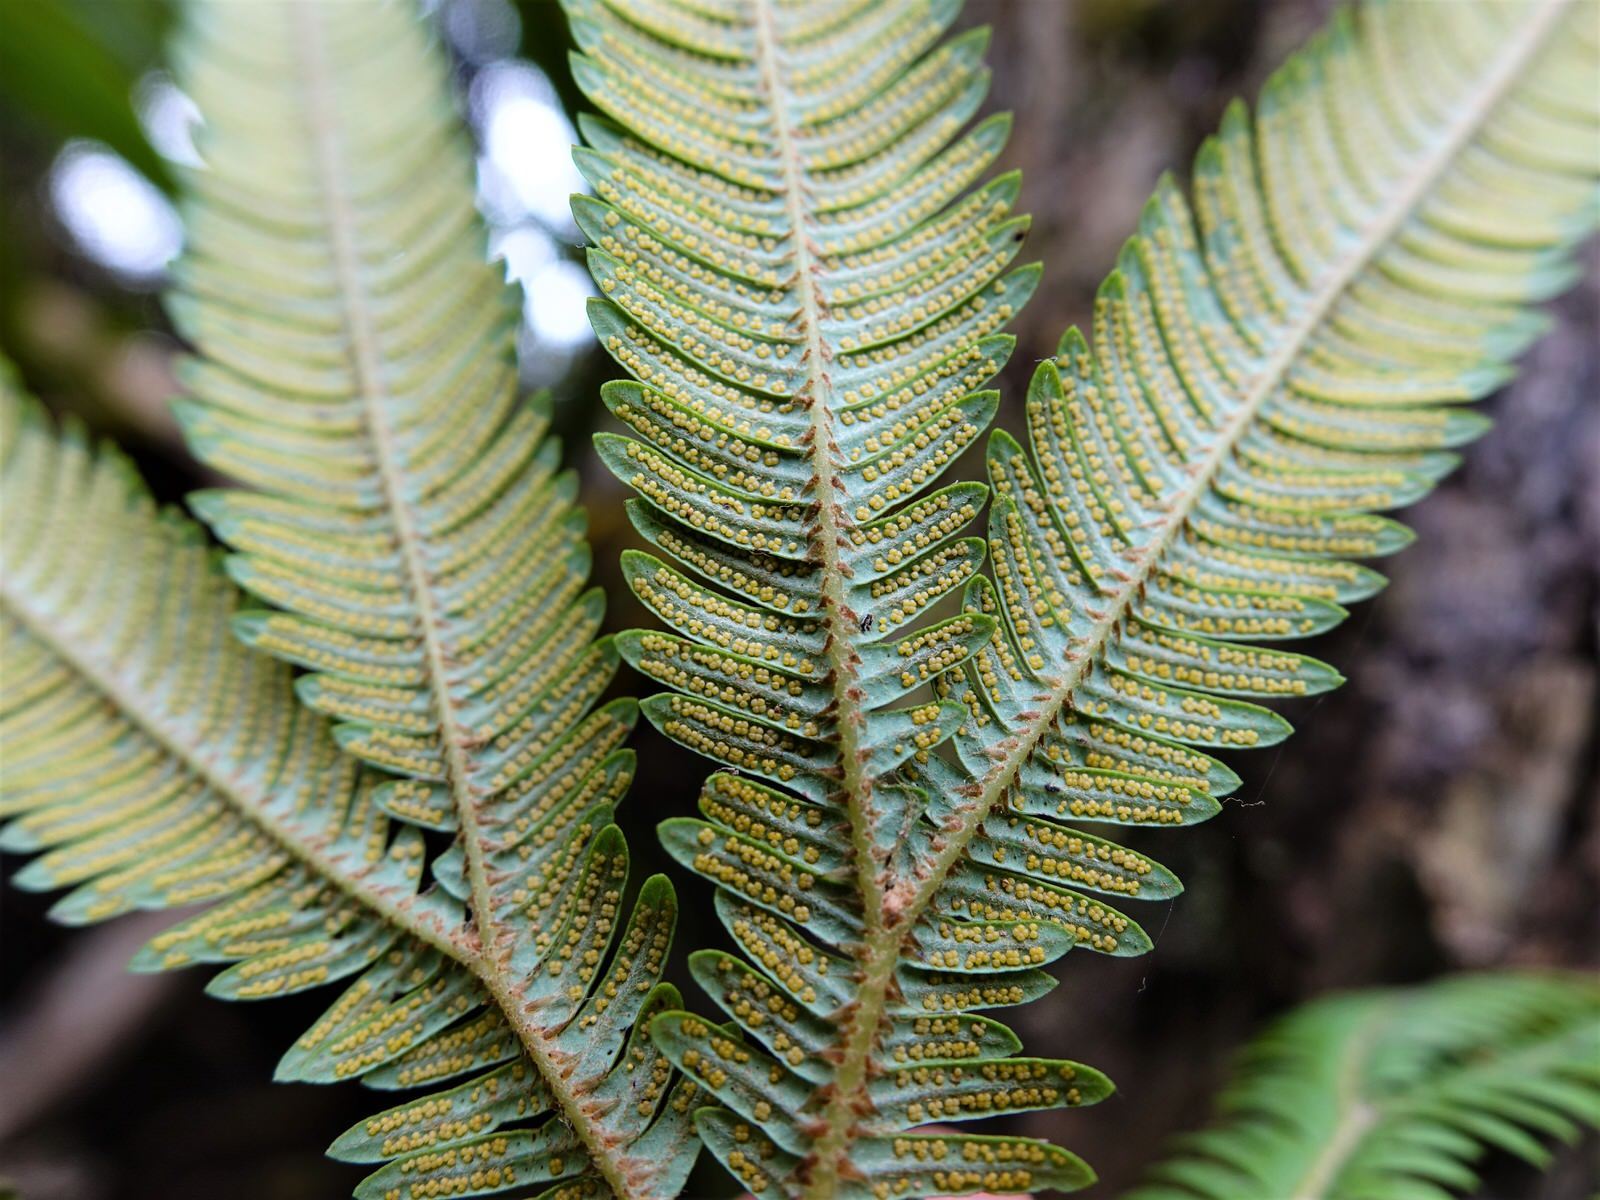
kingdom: Plantae
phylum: Tracheophyta
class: Polypodiopsida
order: Gleicheniales
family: Gleicheniaceae
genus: Sticherus
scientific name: Sticherus cunninghamii
